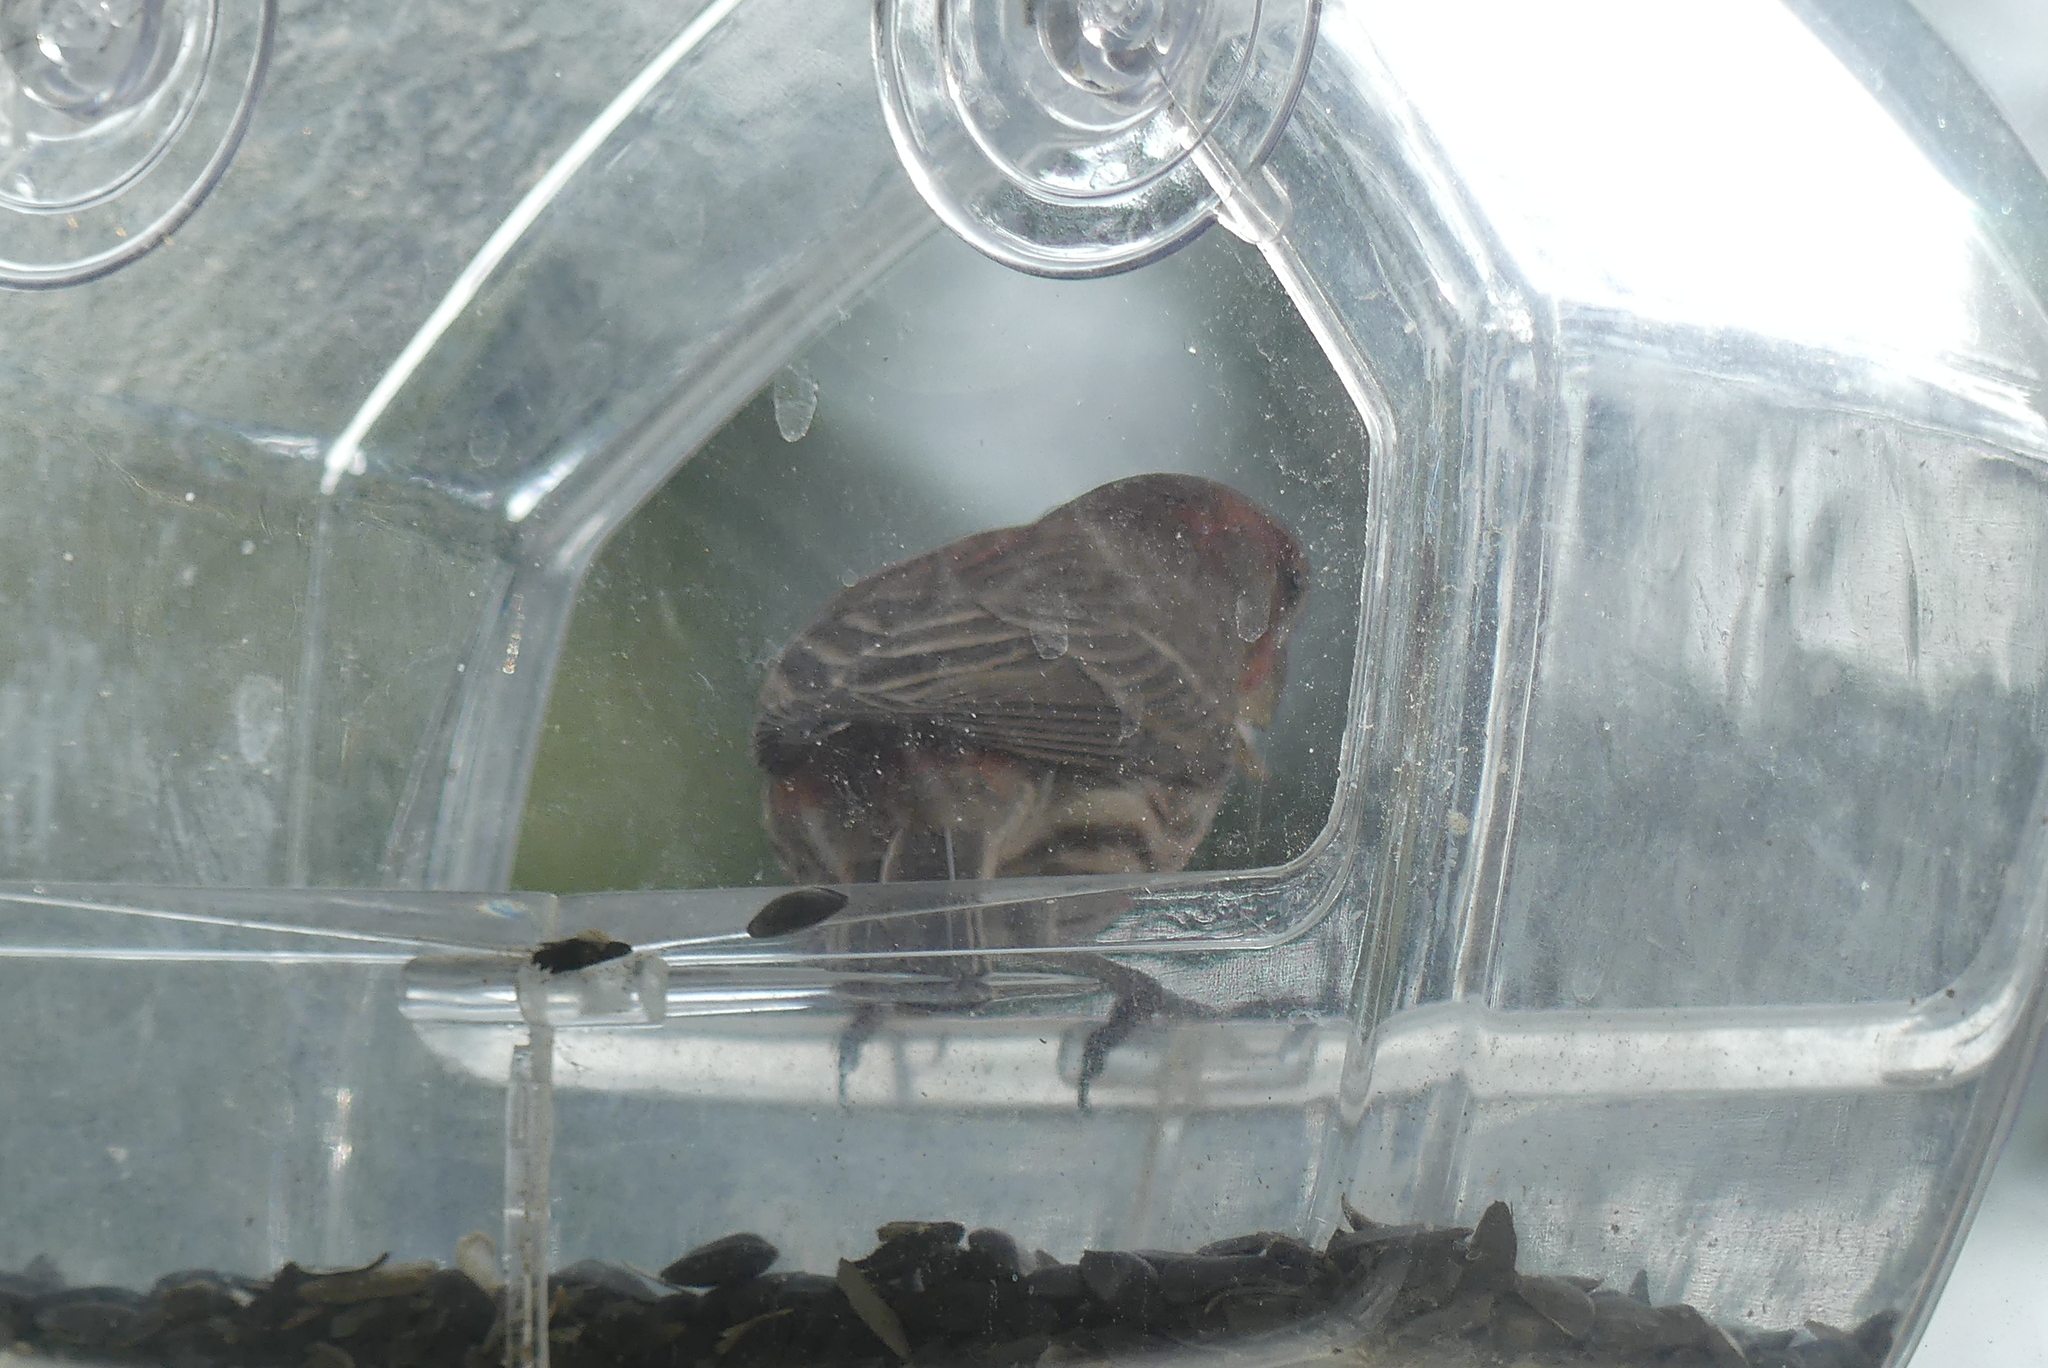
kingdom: Animalia
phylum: Chordata
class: Aves
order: Passeriformes
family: Fringillidae
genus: Haemorhous
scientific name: Haemorhous mexicanus
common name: House finch
